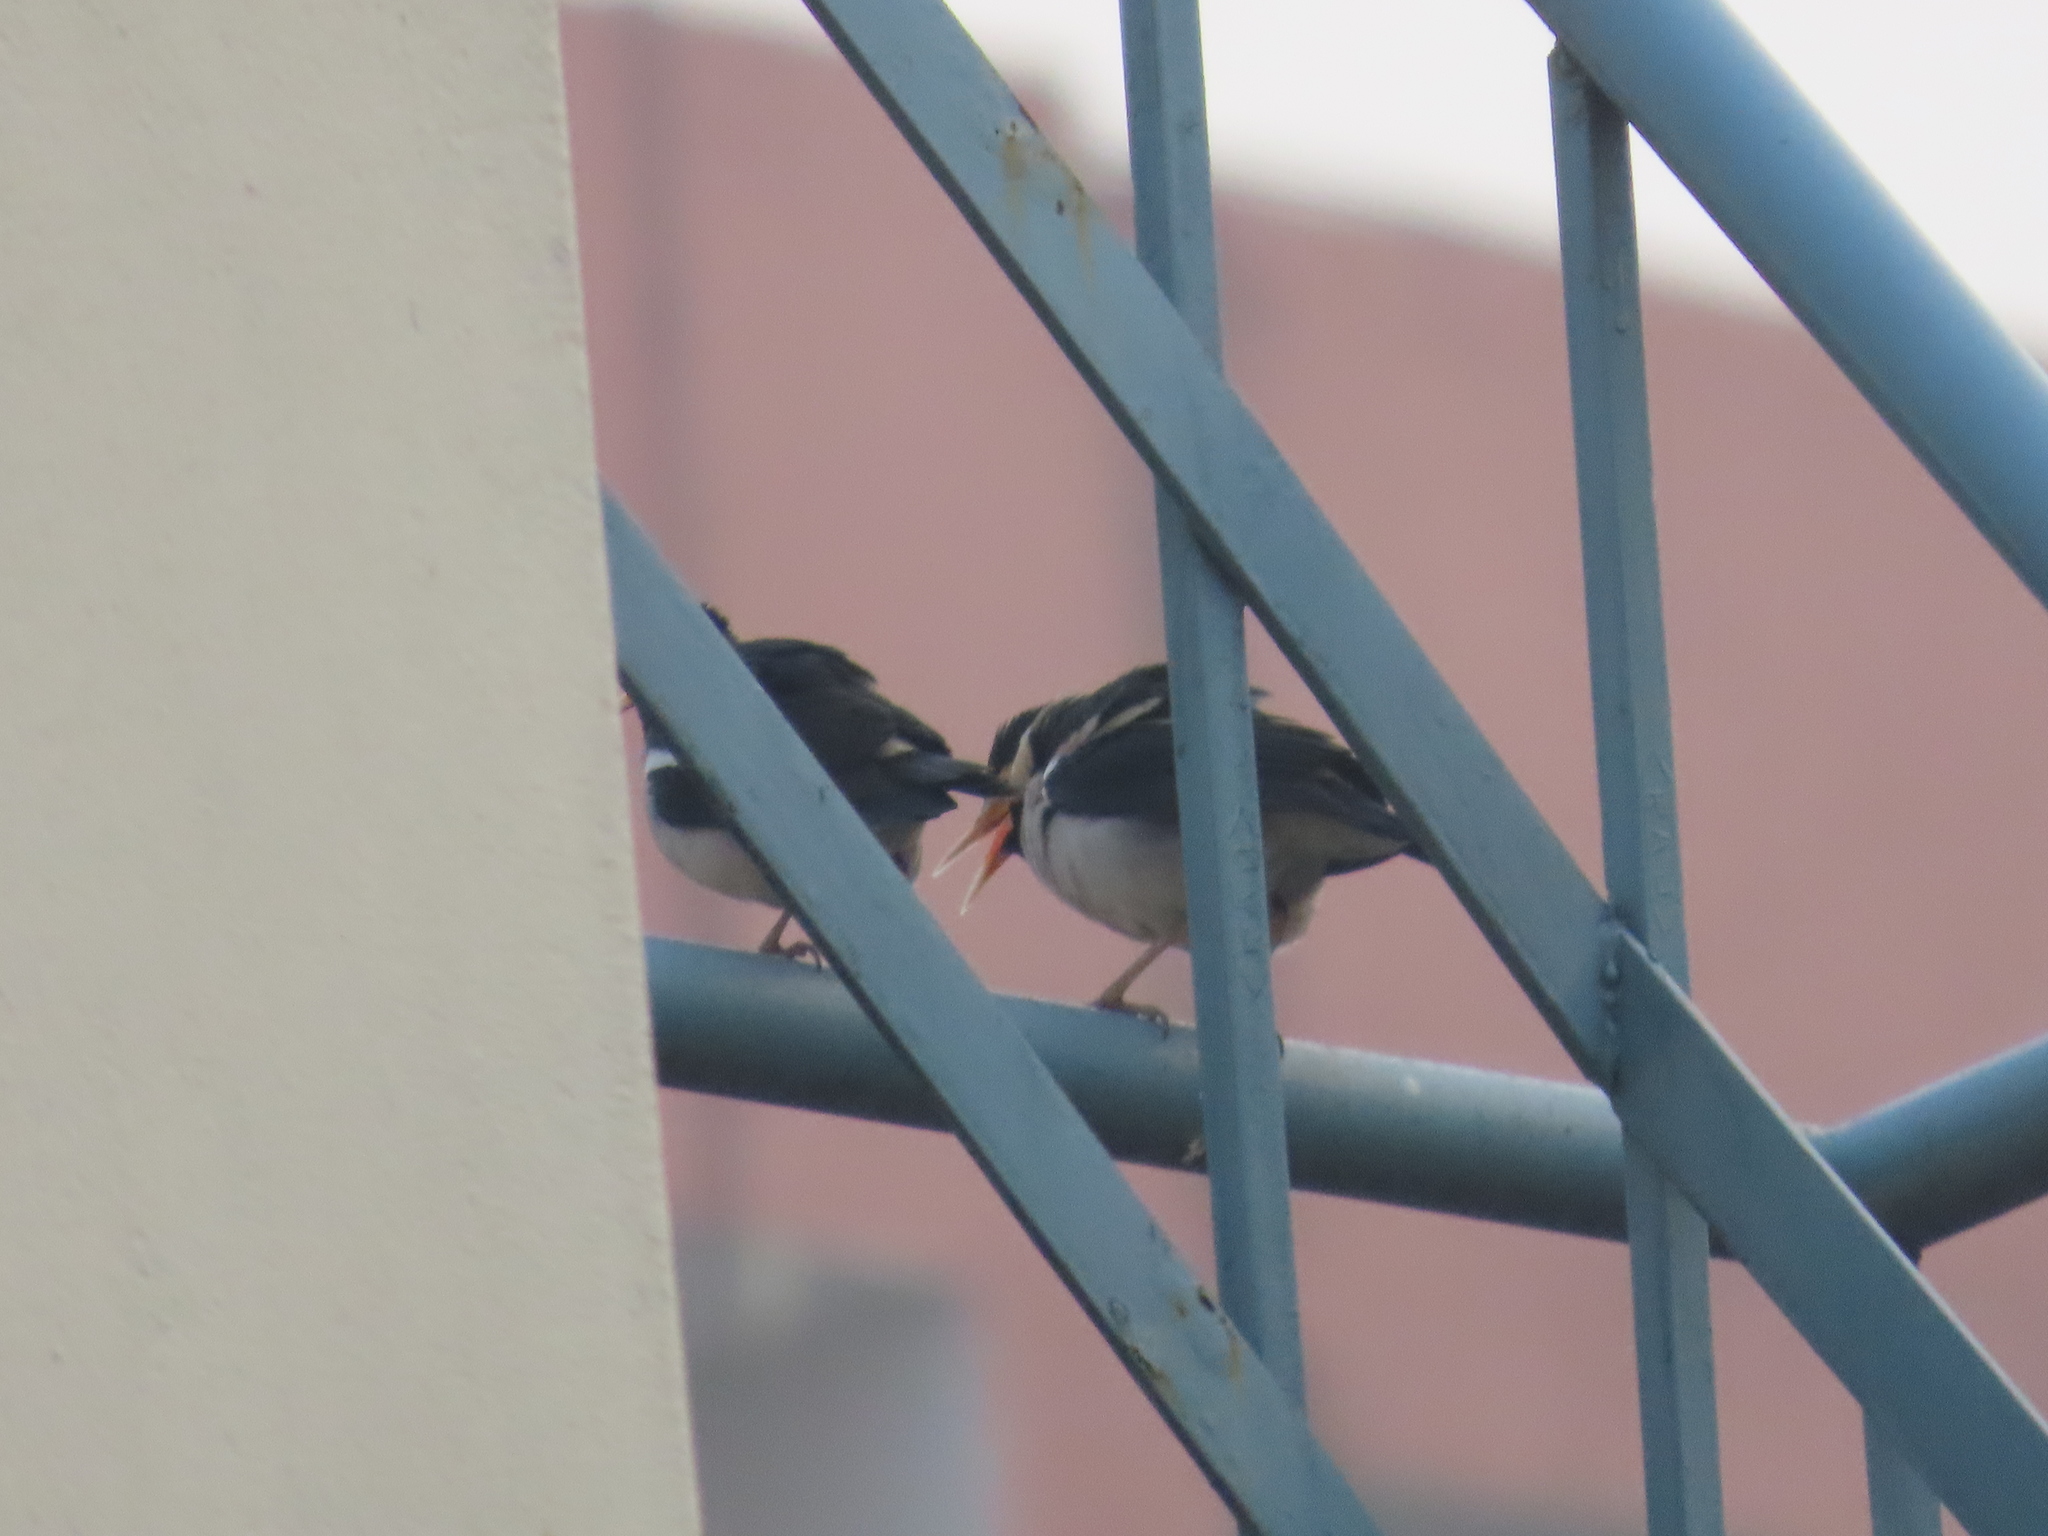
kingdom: Animalia
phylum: Chordata
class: Aves
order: Passeriformes
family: Sturnidae
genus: Gracupica
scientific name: Gracupica contra
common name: Pied myna
